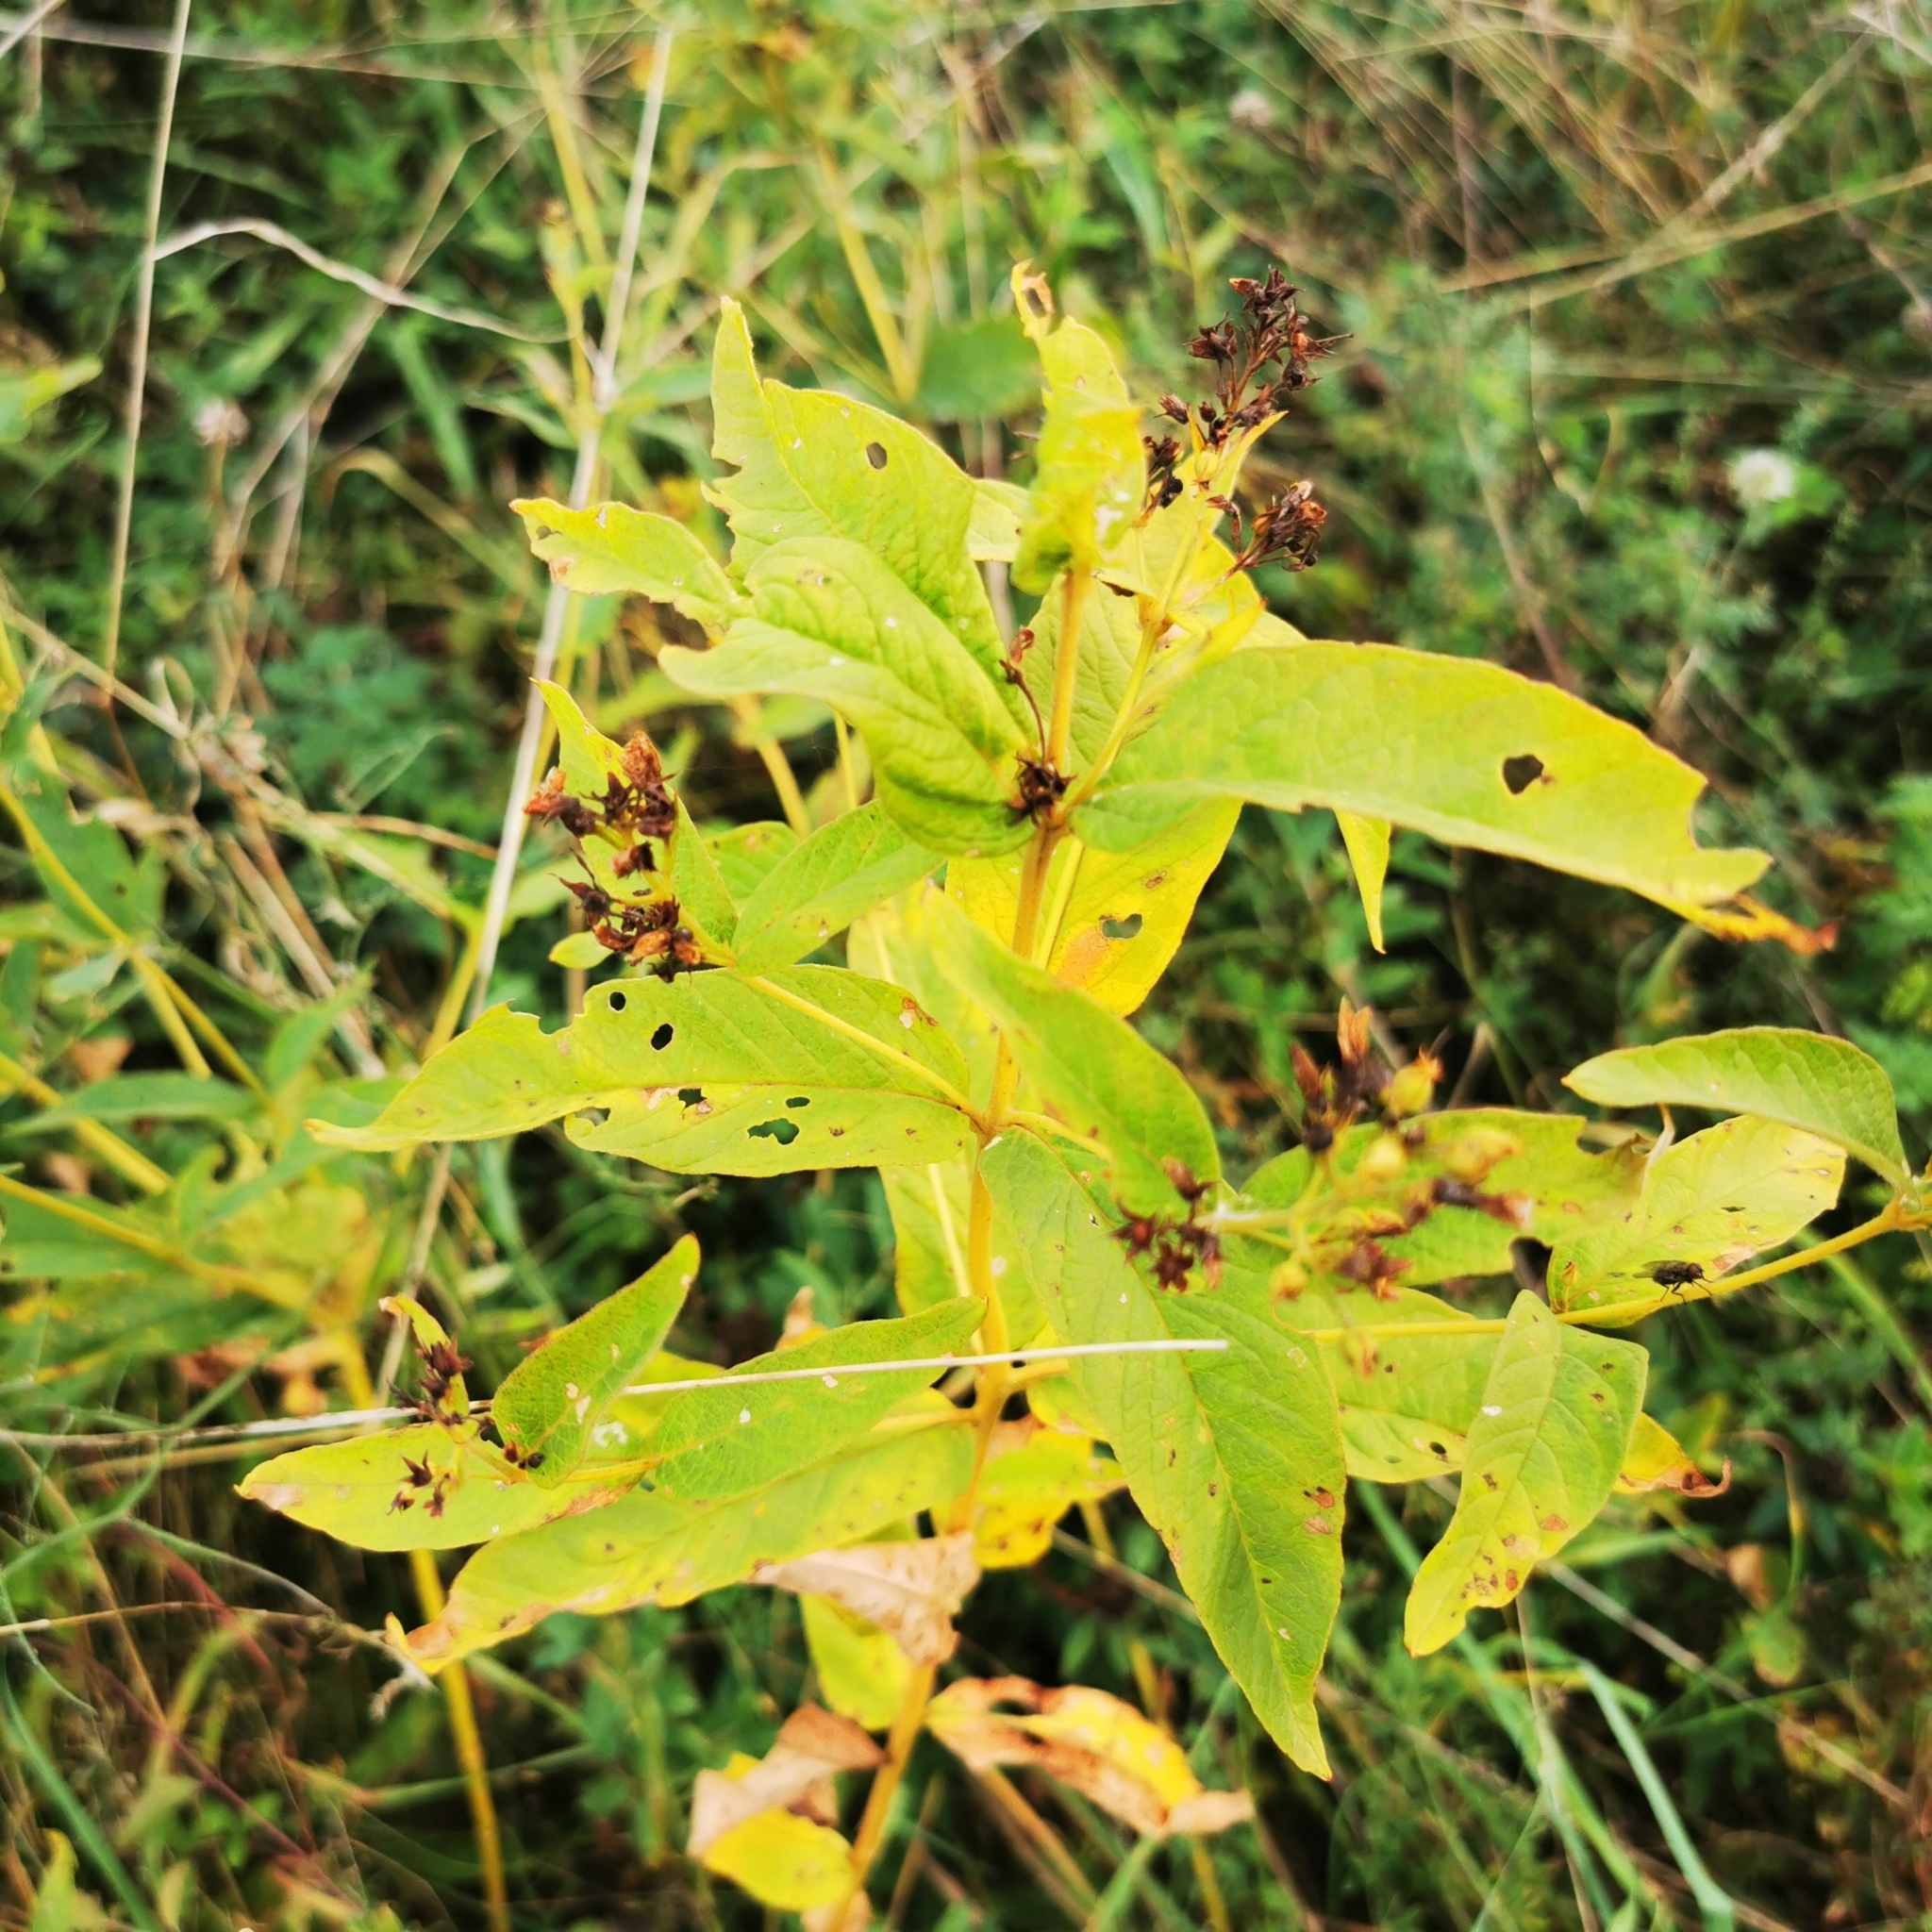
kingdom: Plantae
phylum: Tracheophyta
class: Magnoliopsida
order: Ericales
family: Primulaceae
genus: Lysimachia
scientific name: Lysimachia vulgaris
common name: Yellow loosestrife
